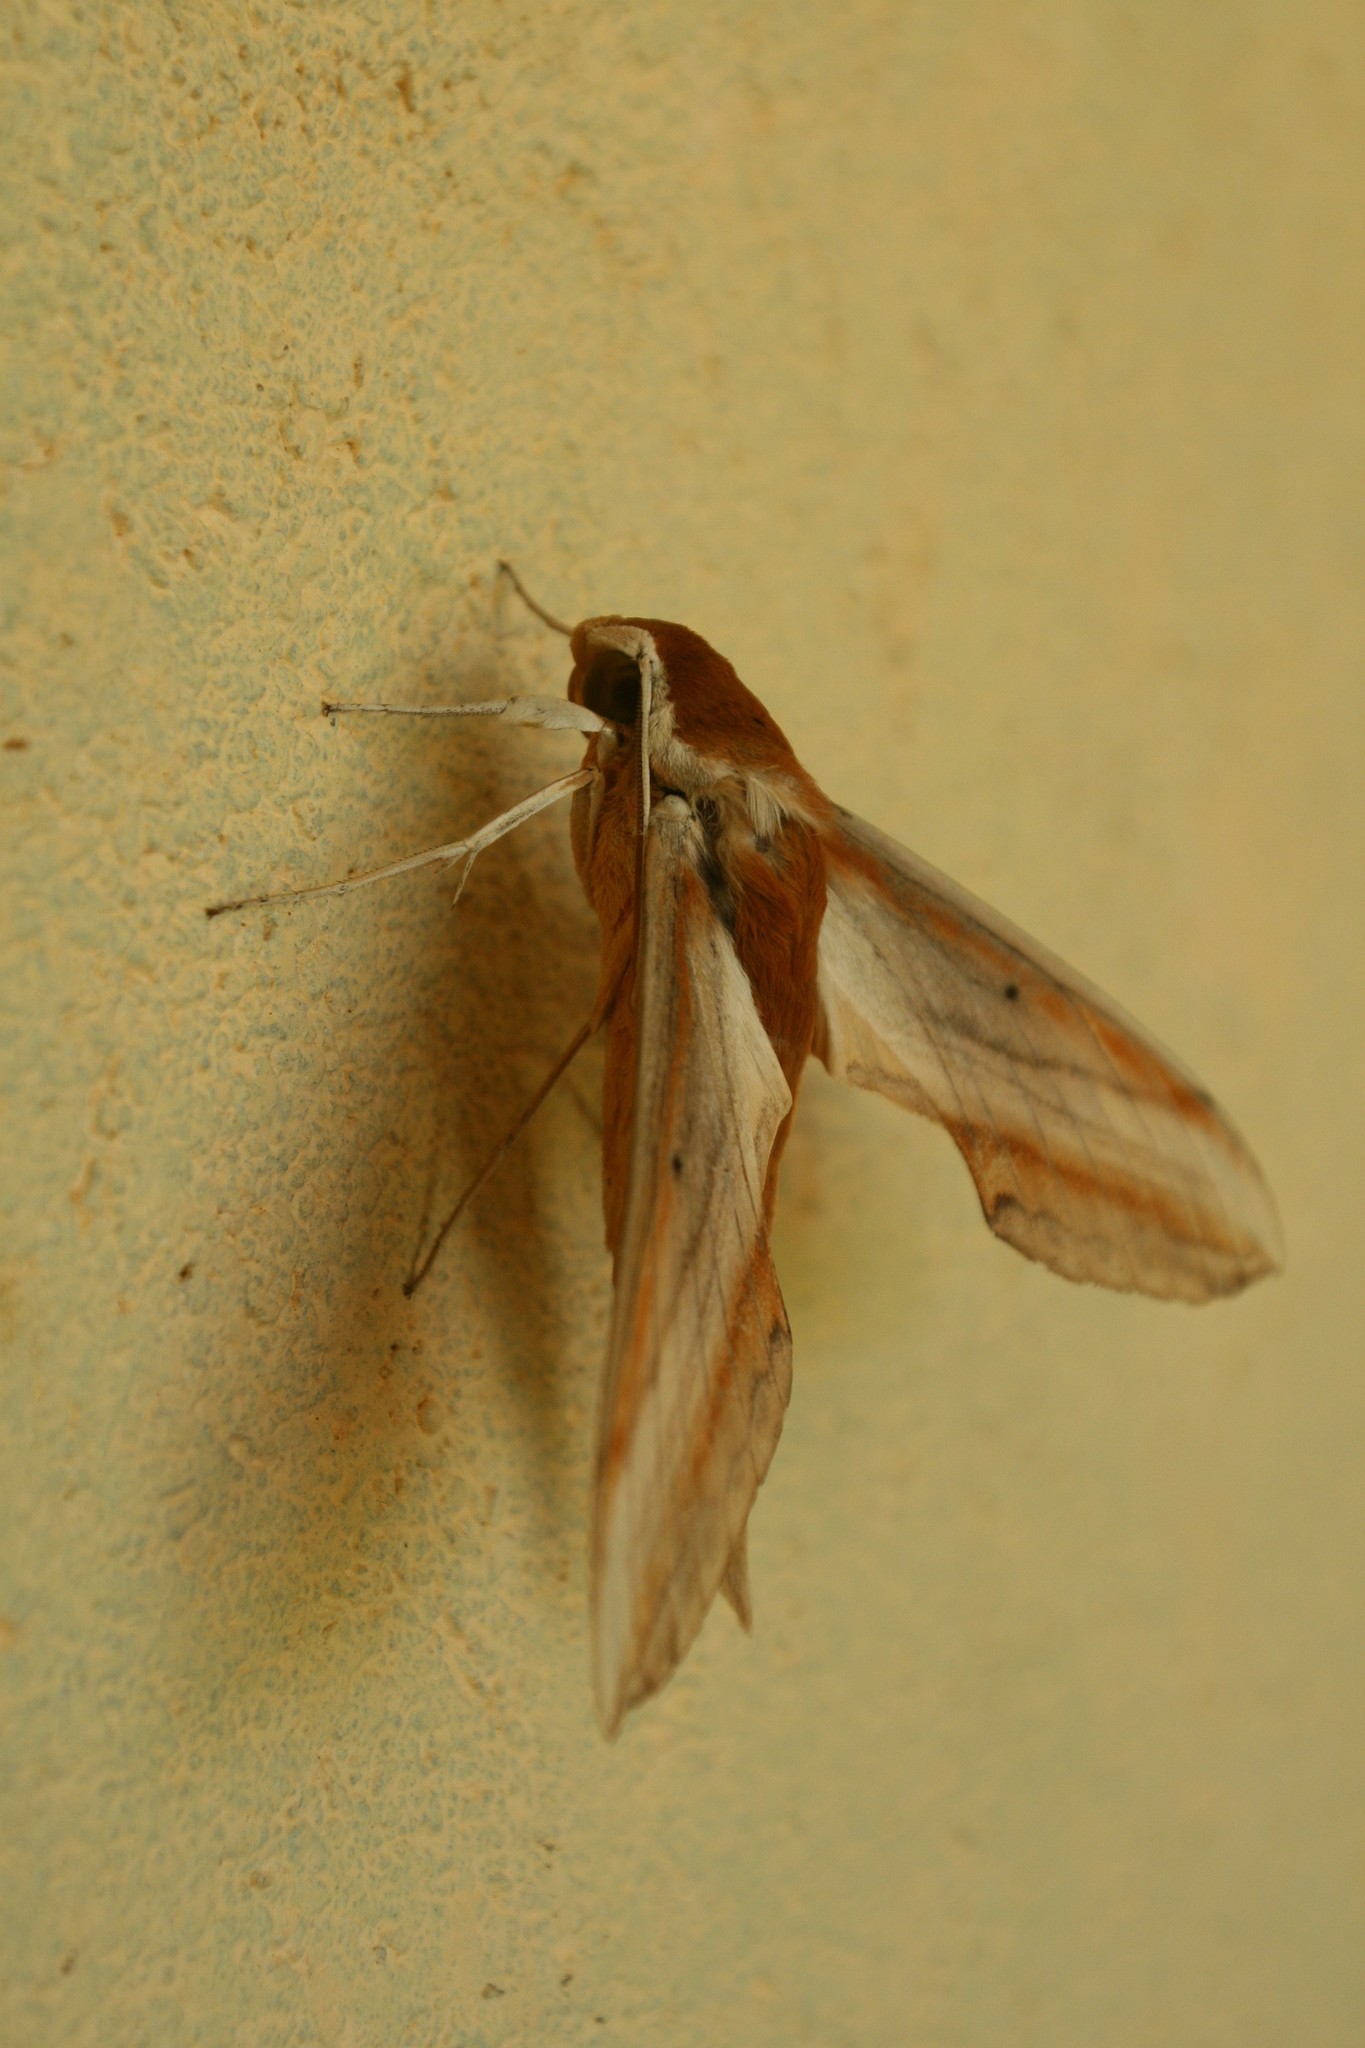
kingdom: Animalia
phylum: Arthropoda
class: Insecta
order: Lepidoptera
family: Sphingidae
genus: Theretra
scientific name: Theretra nessus
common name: Yam hawk moth
